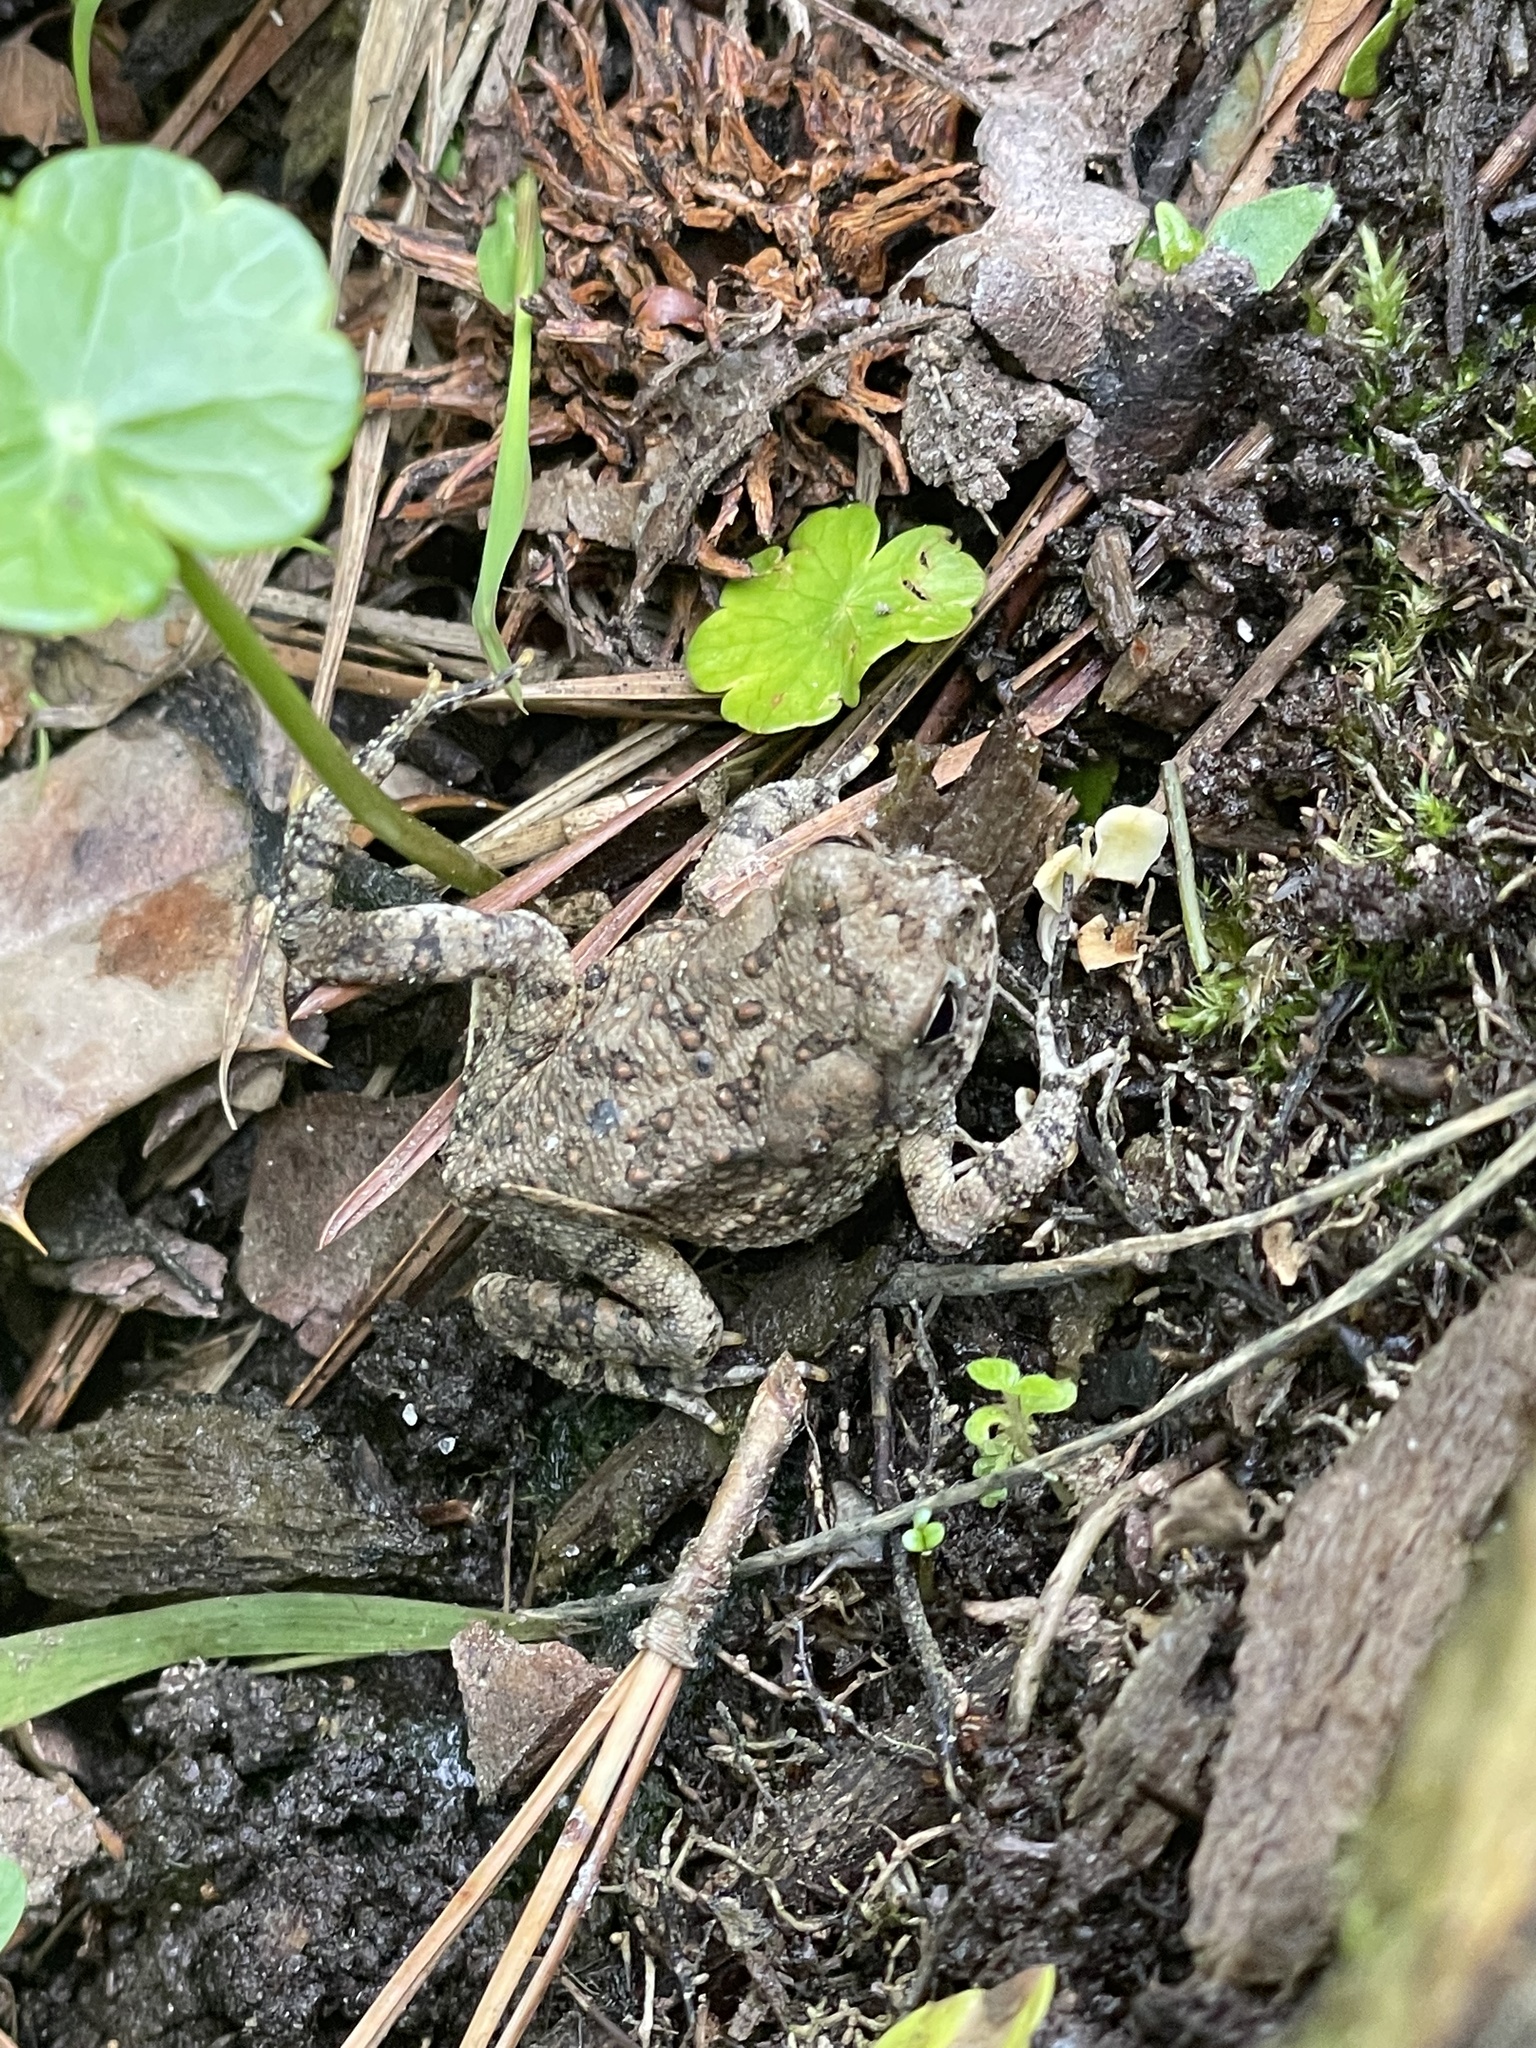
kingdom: Animalia
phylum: Chordata
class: Amphibia
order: Anura
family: Bufonidae
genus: Anaxyrus
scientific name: Anaxyrus fowleri
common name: Fowler's toad
